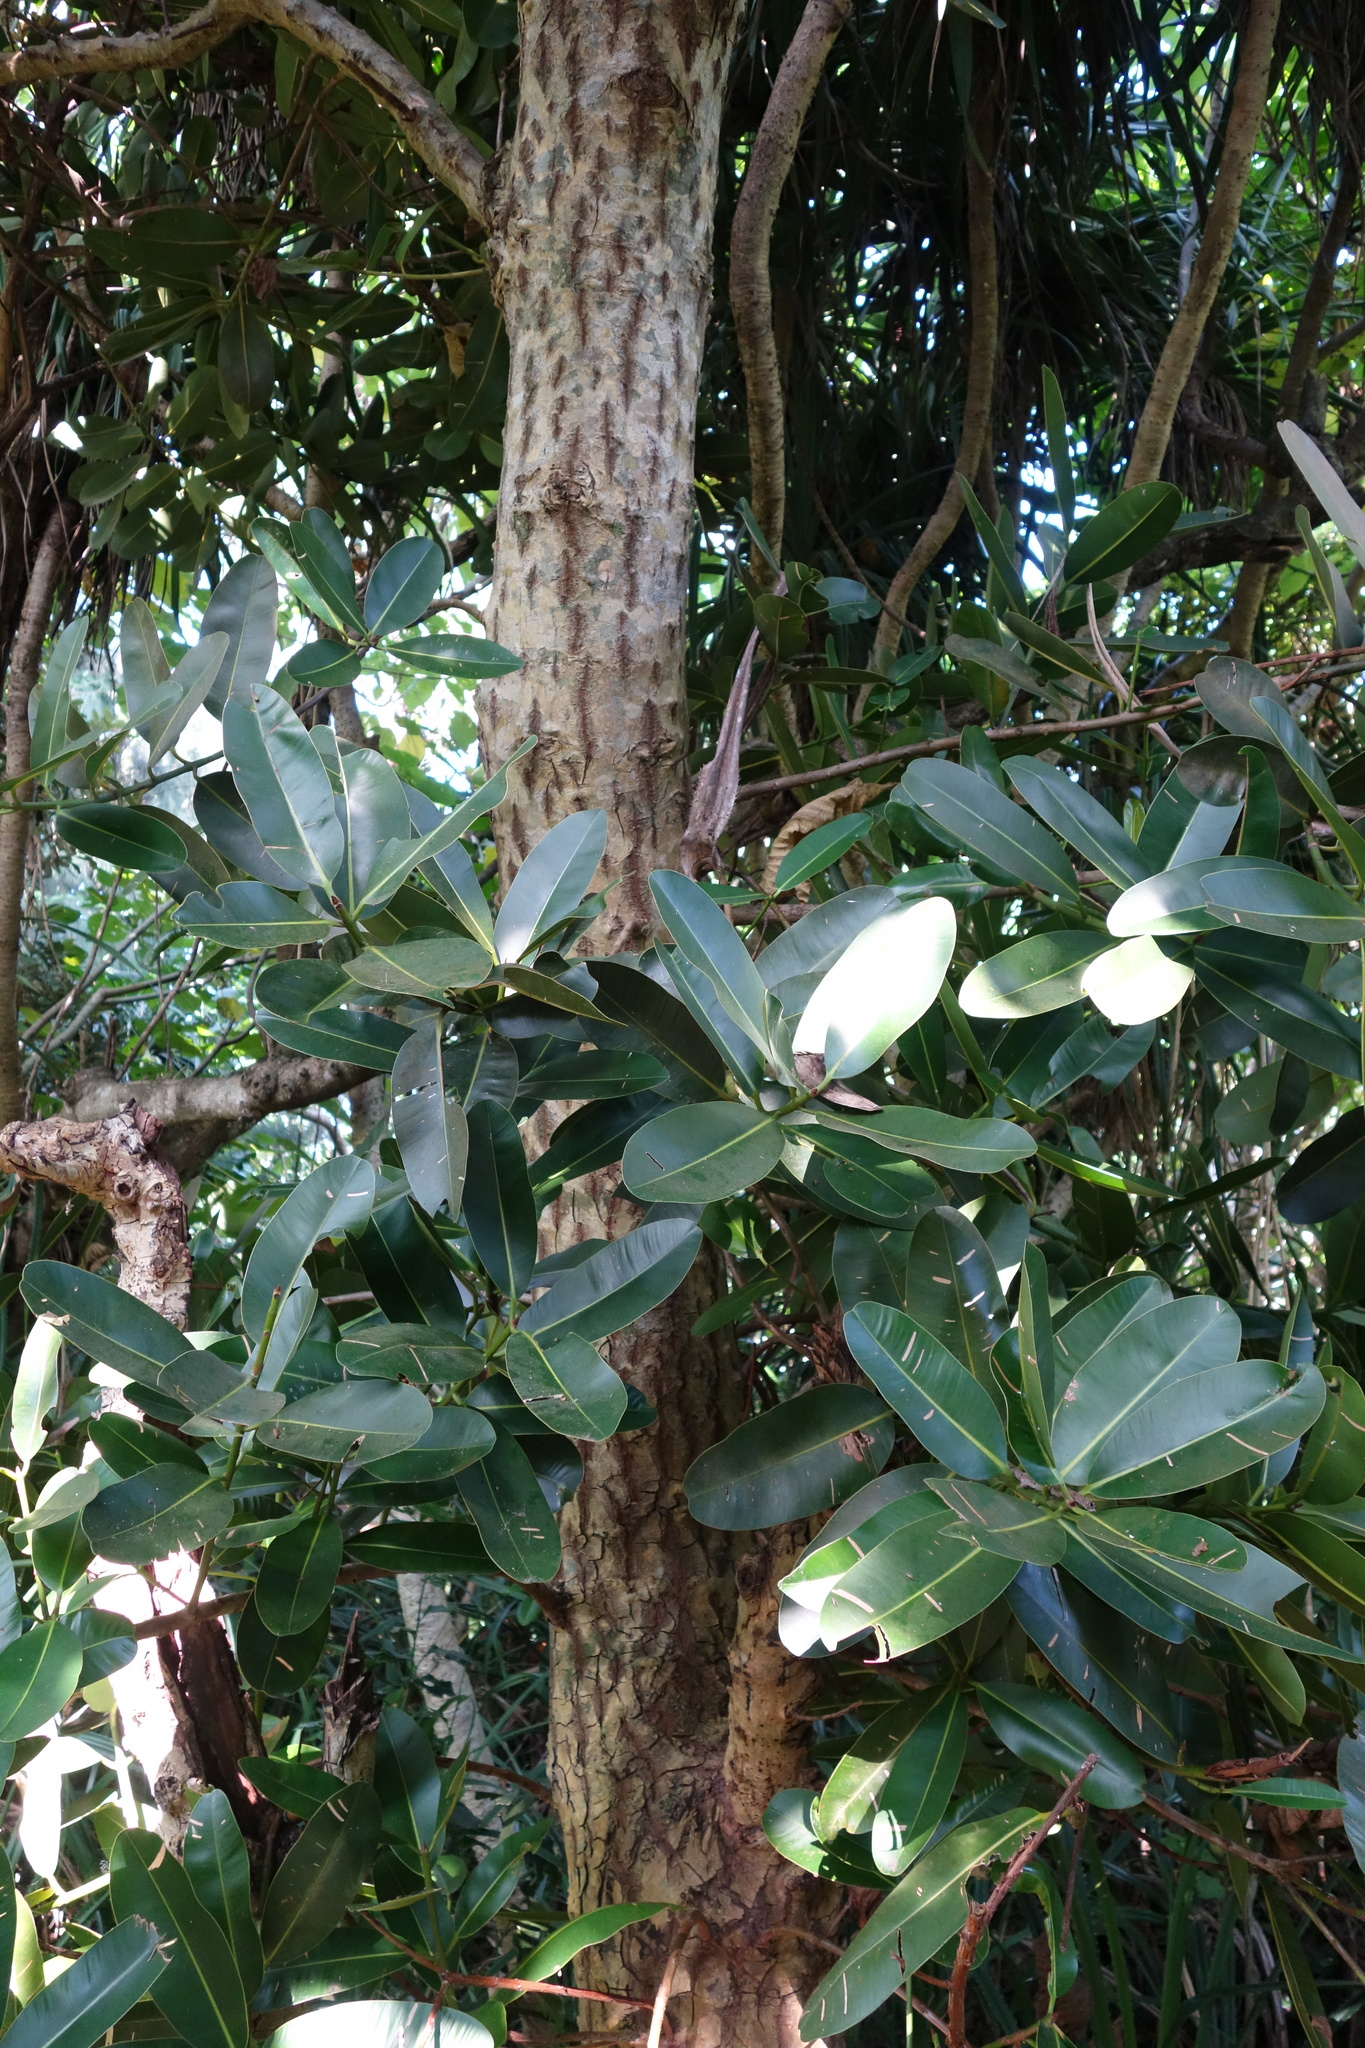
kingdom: Plantae
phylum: Tracheophyta
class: Magnoliopsida
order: Malpighiales
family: Calophyllaceae
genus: Calophyllum
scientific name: Calophyllum inophyllum
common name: Alexandrian laurel
